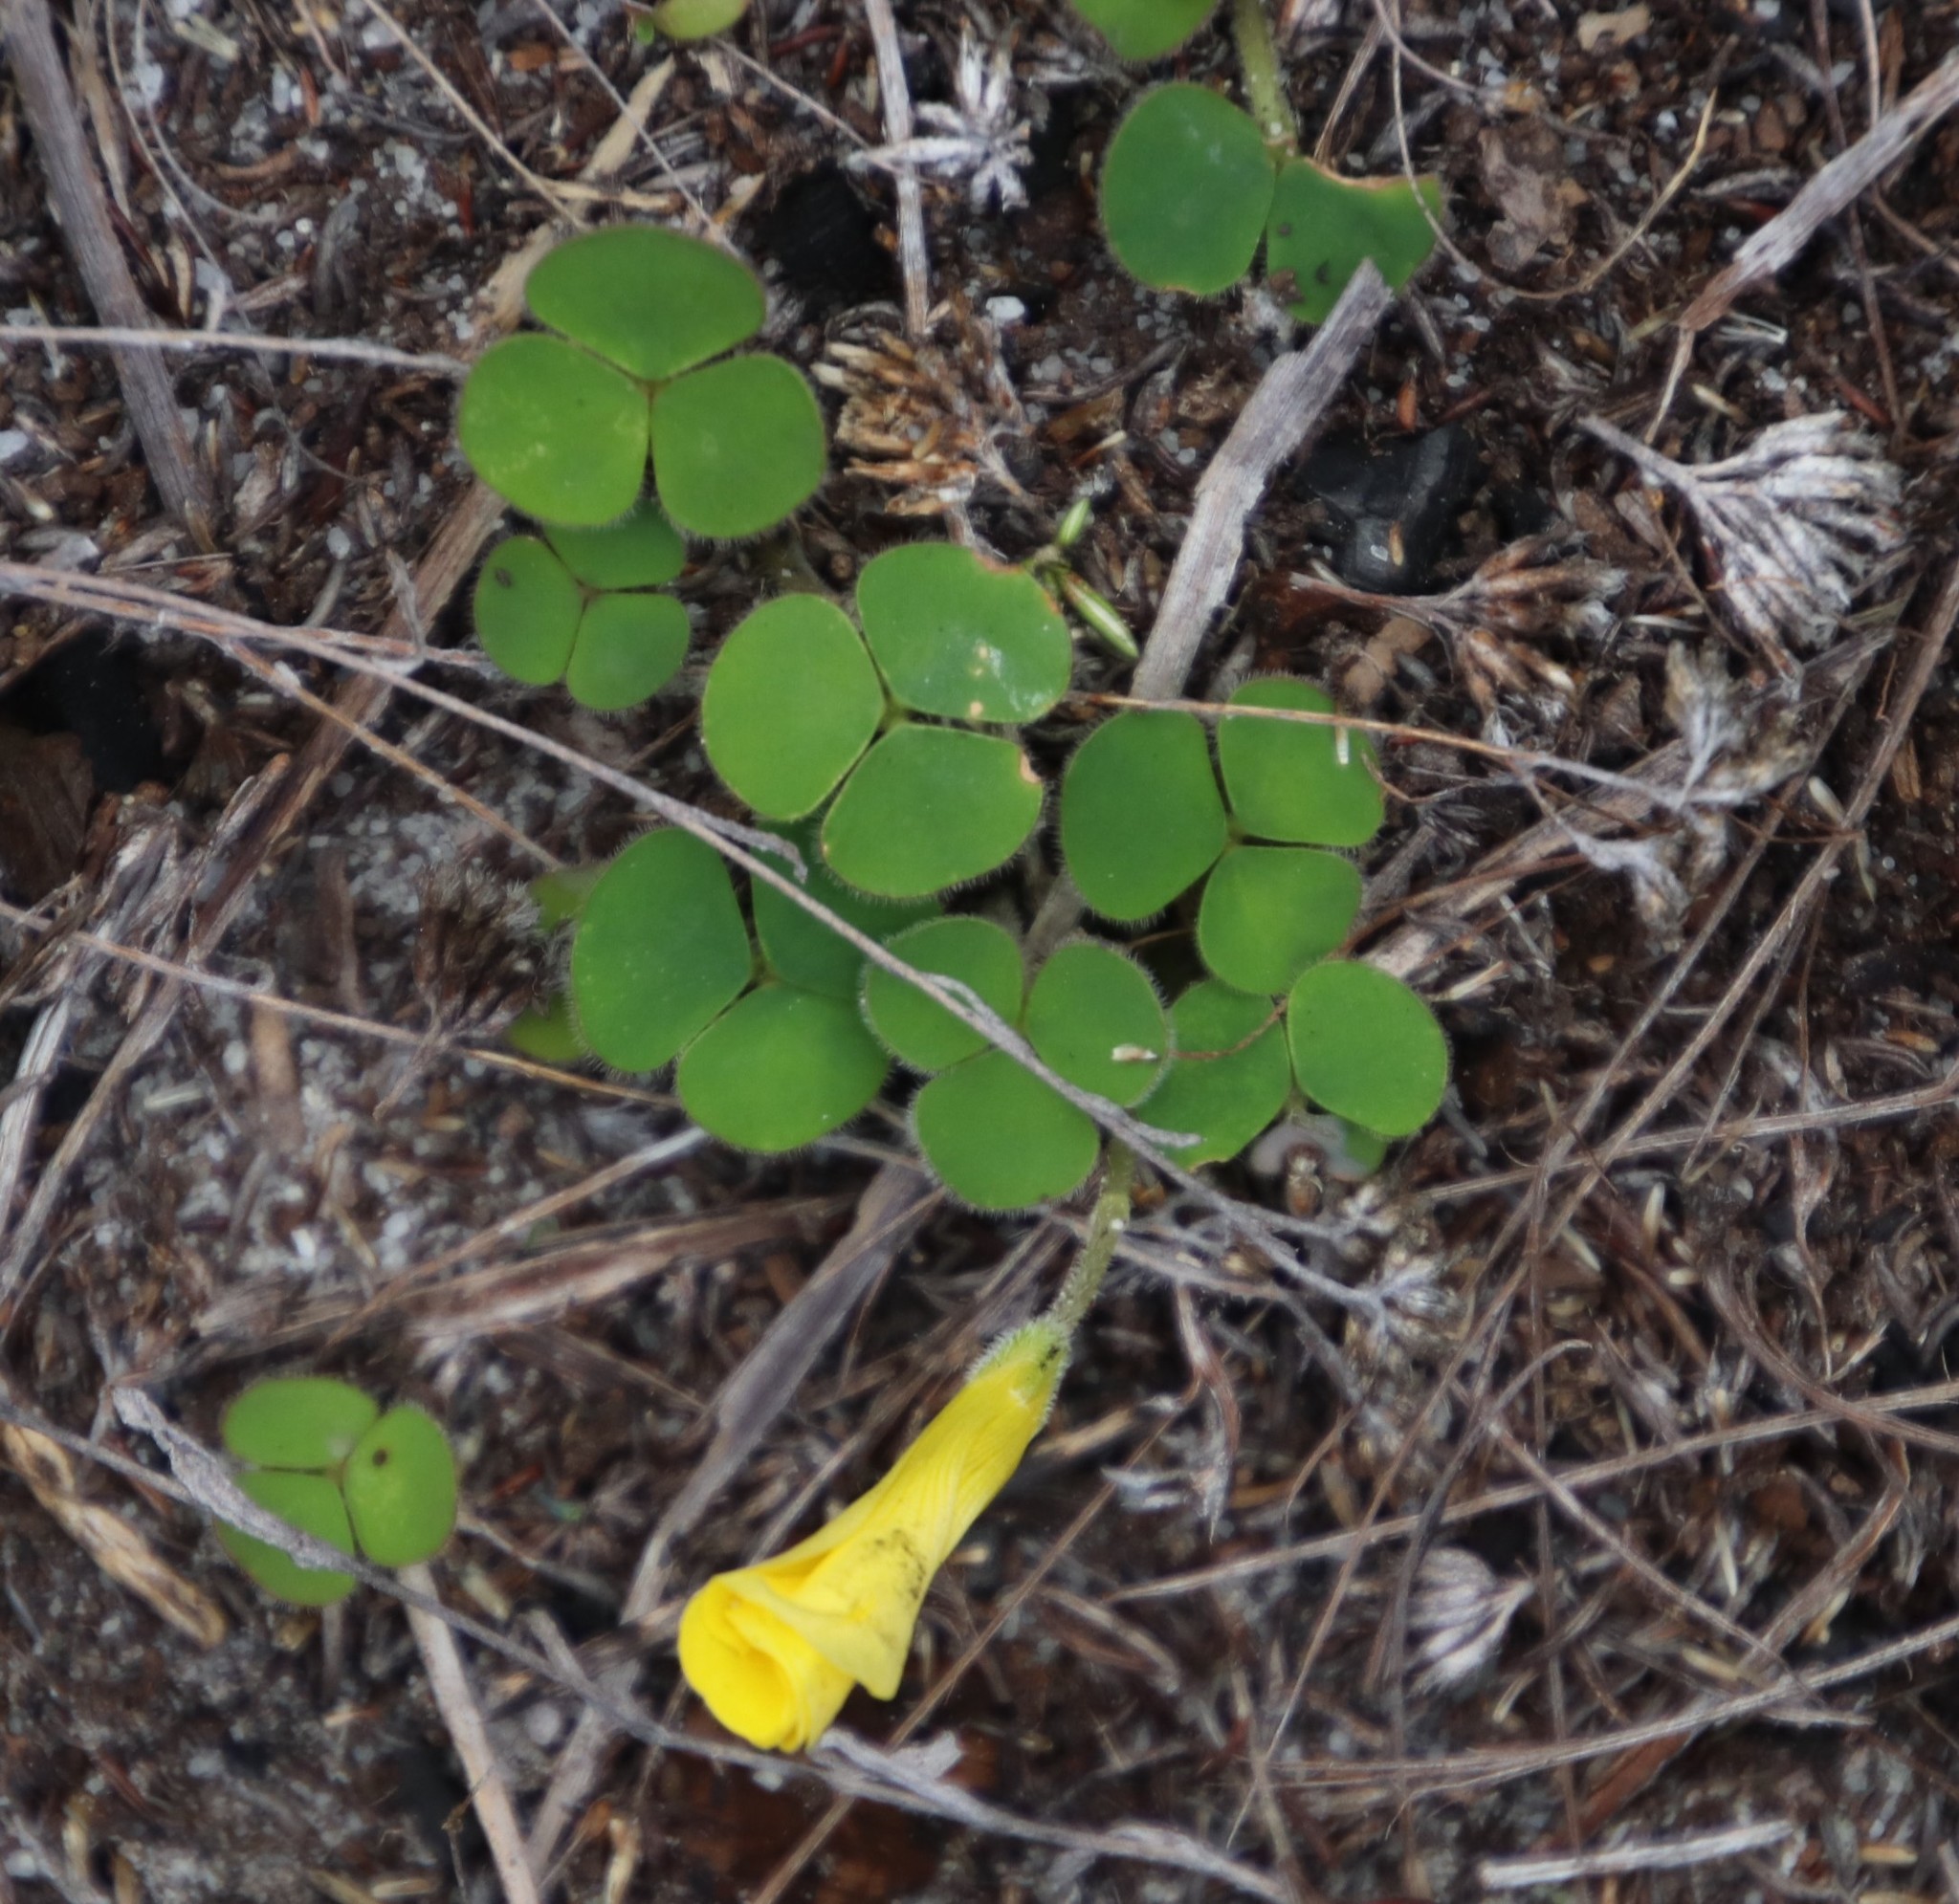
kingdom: Plantae
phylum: Tracheophyta
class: Magnoliopsida
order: Oxalidales
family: Oxalidaceae
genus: Oxalis
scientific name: Oxalis luteola
